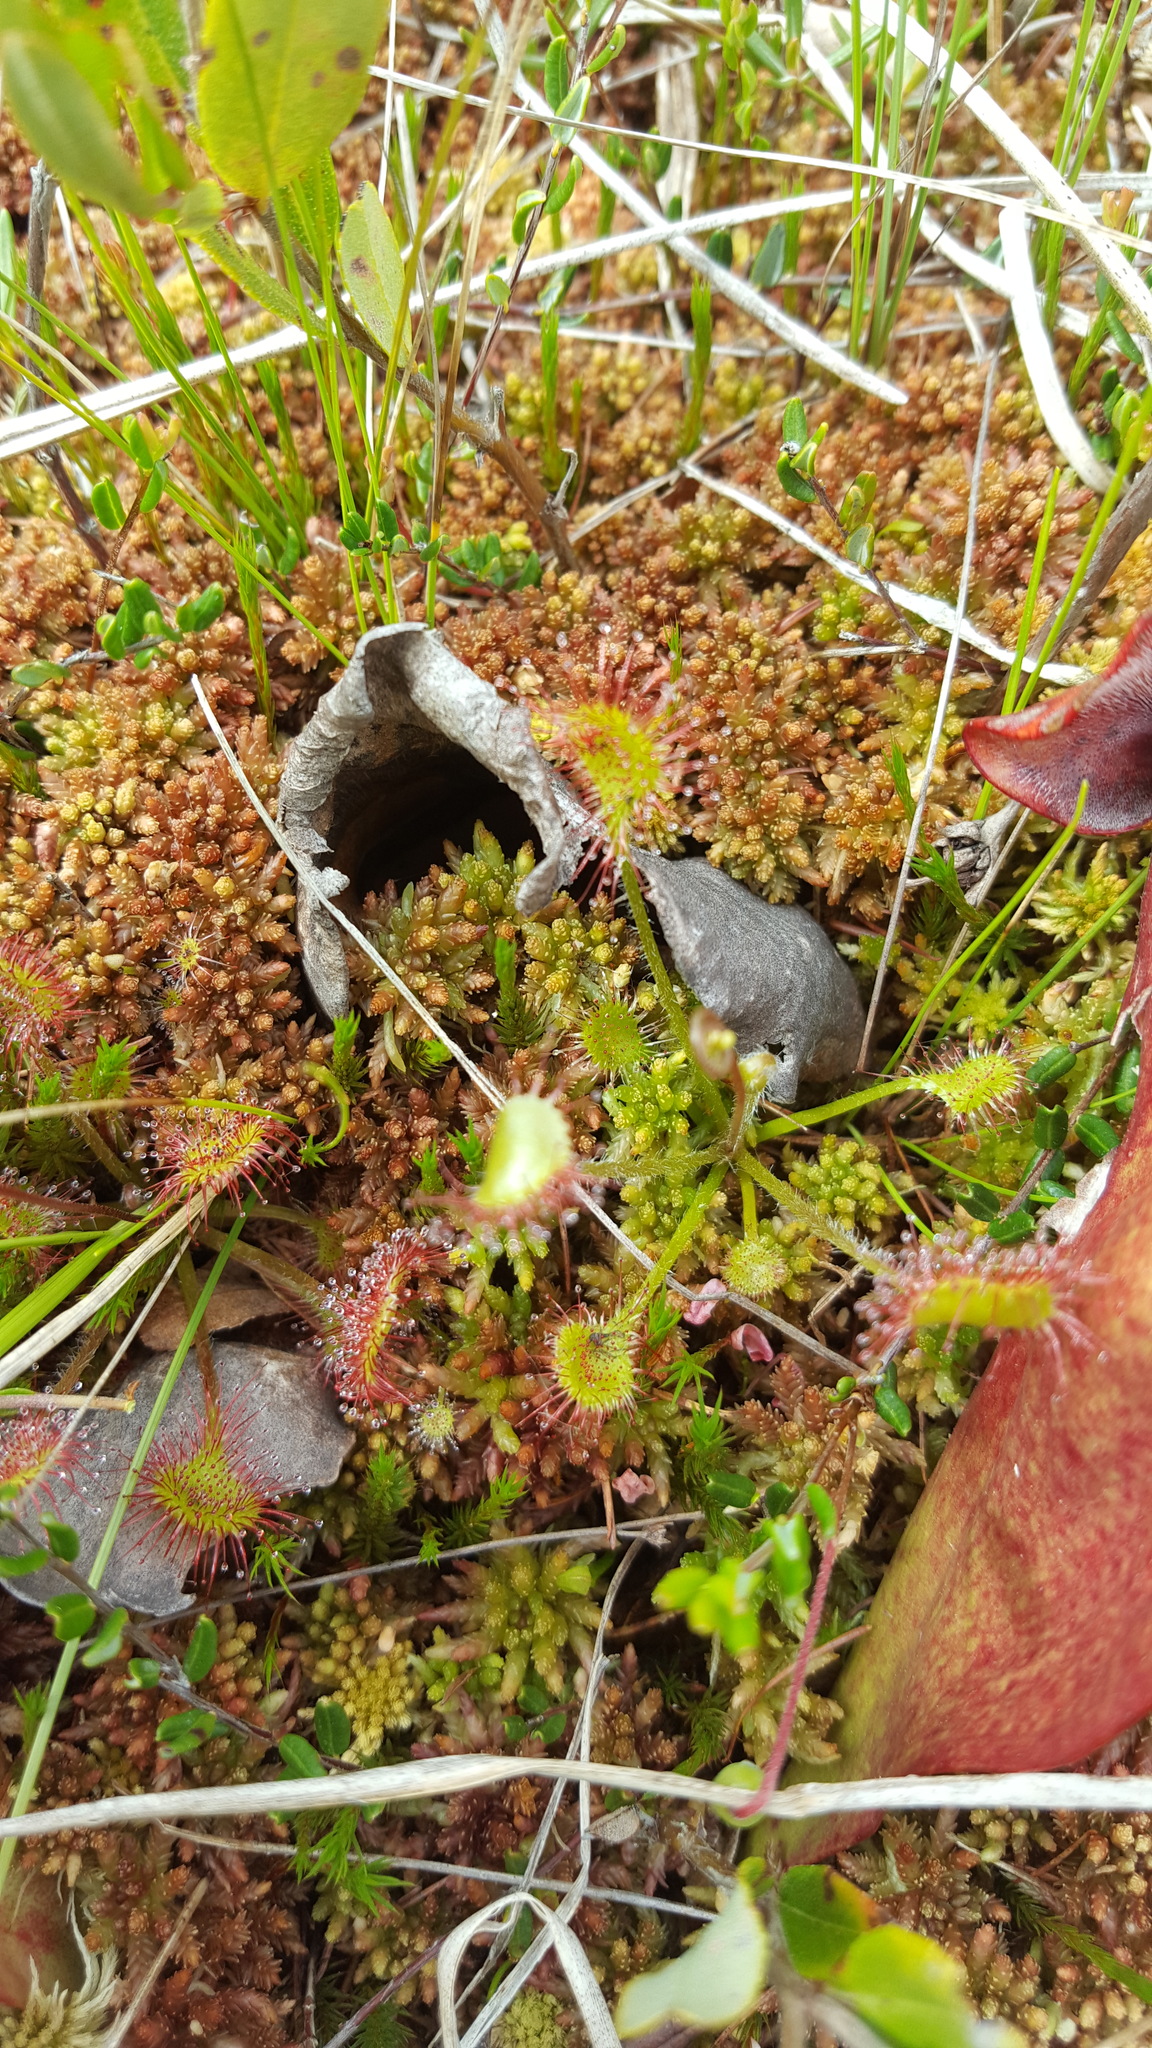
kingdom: Plantae
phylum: Tracheophyta
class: Magnoliopsida
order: Caryophyllales
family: Droseraceae
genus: Drosera
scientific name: Drosera rotundifolia
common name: Round-leaved sundew
